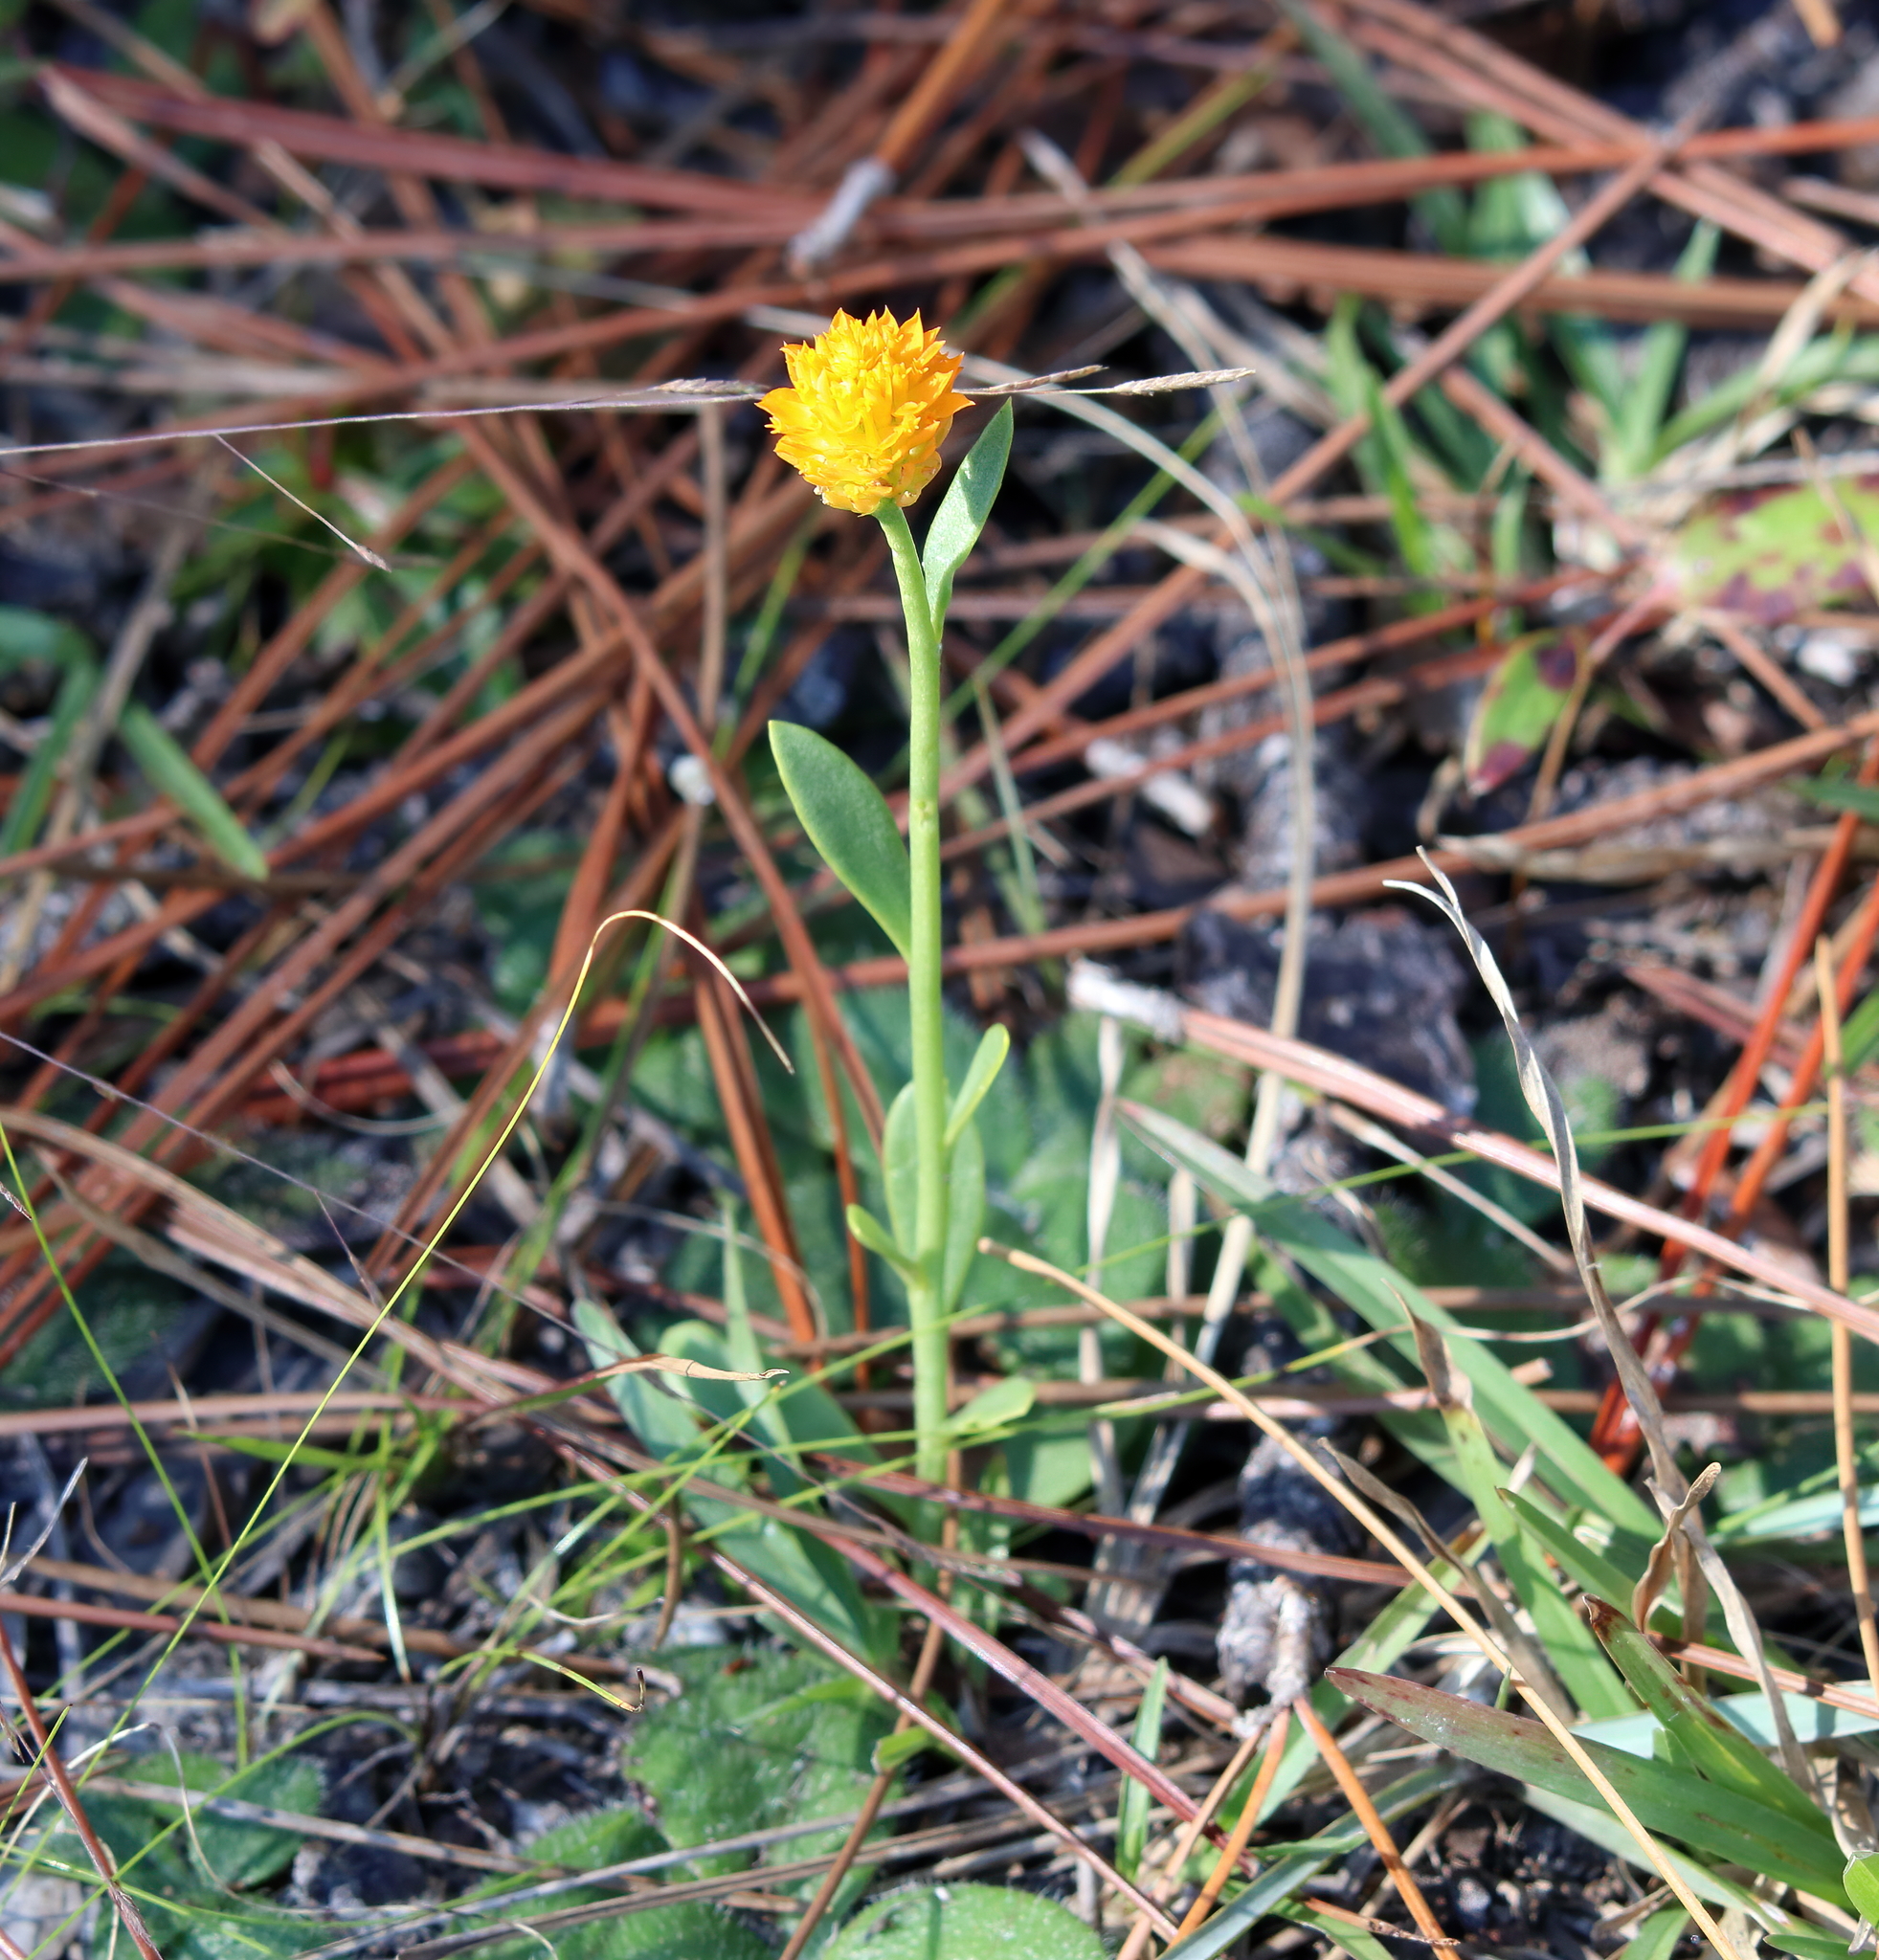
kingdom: Plantae
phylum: Tracheophyta
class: Magnoliopsida
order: Fabales
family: Polygalaceae
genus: Polygala
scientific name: Polygala lutea
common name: Orange milkwort
